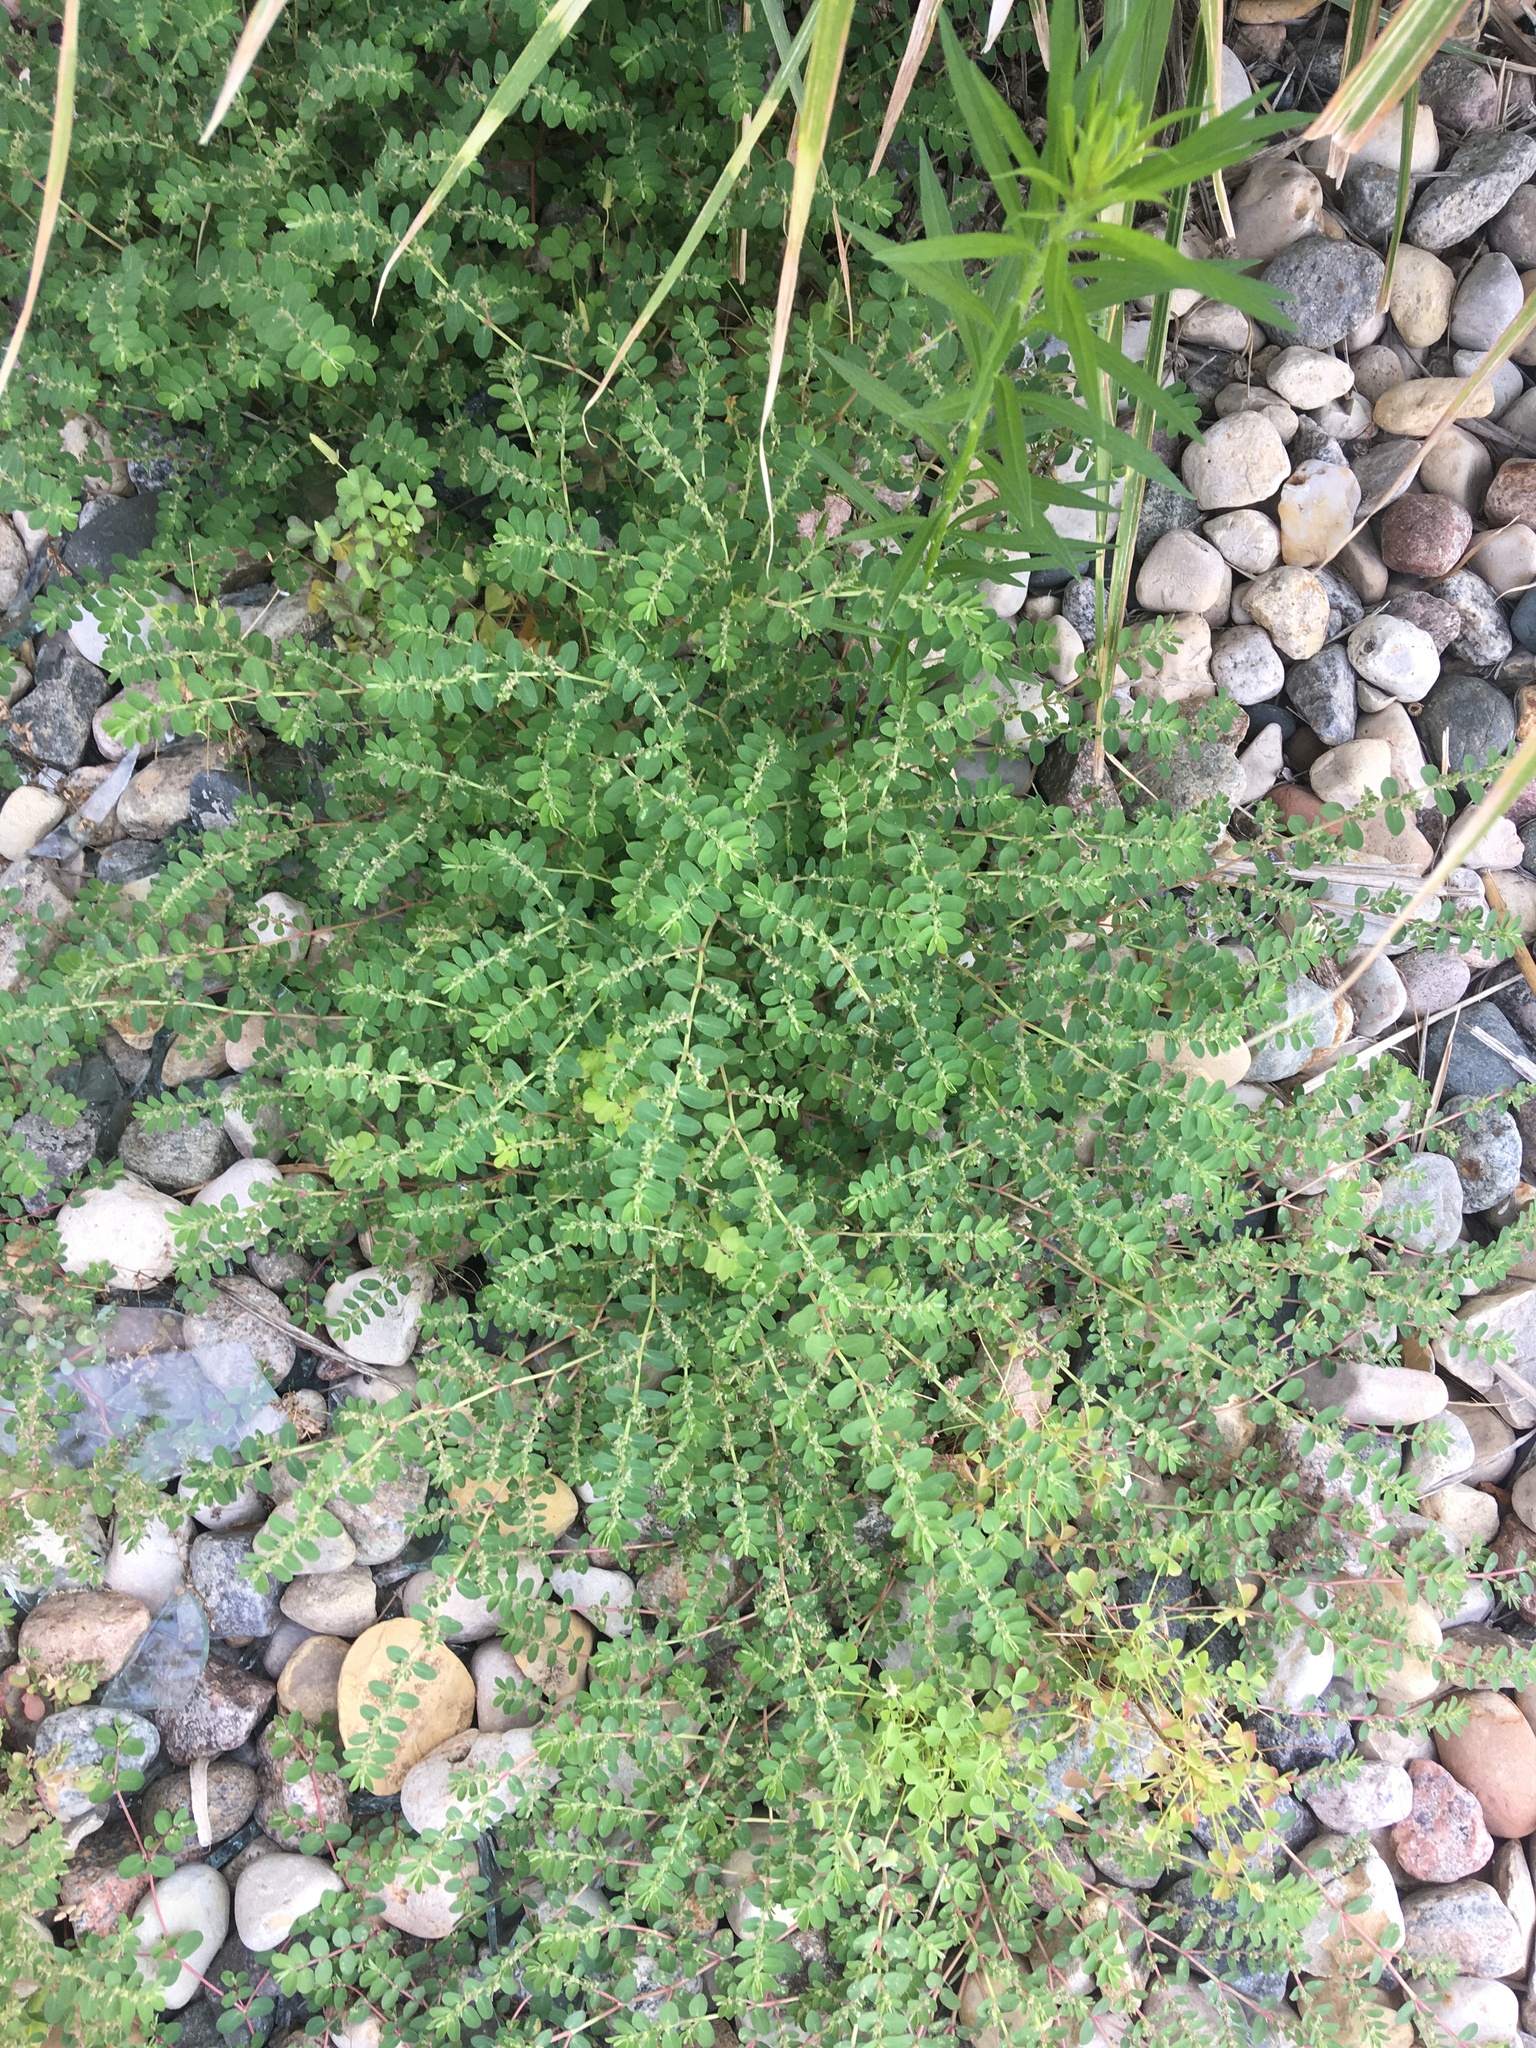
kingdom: Plantae
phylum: Tracheophyta
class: Magnoliopsida
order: Malpighiales
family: Euphorbiaceae
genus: Euphorbia
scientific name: Euphorbia prostrata
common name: Prostrate sandmat
